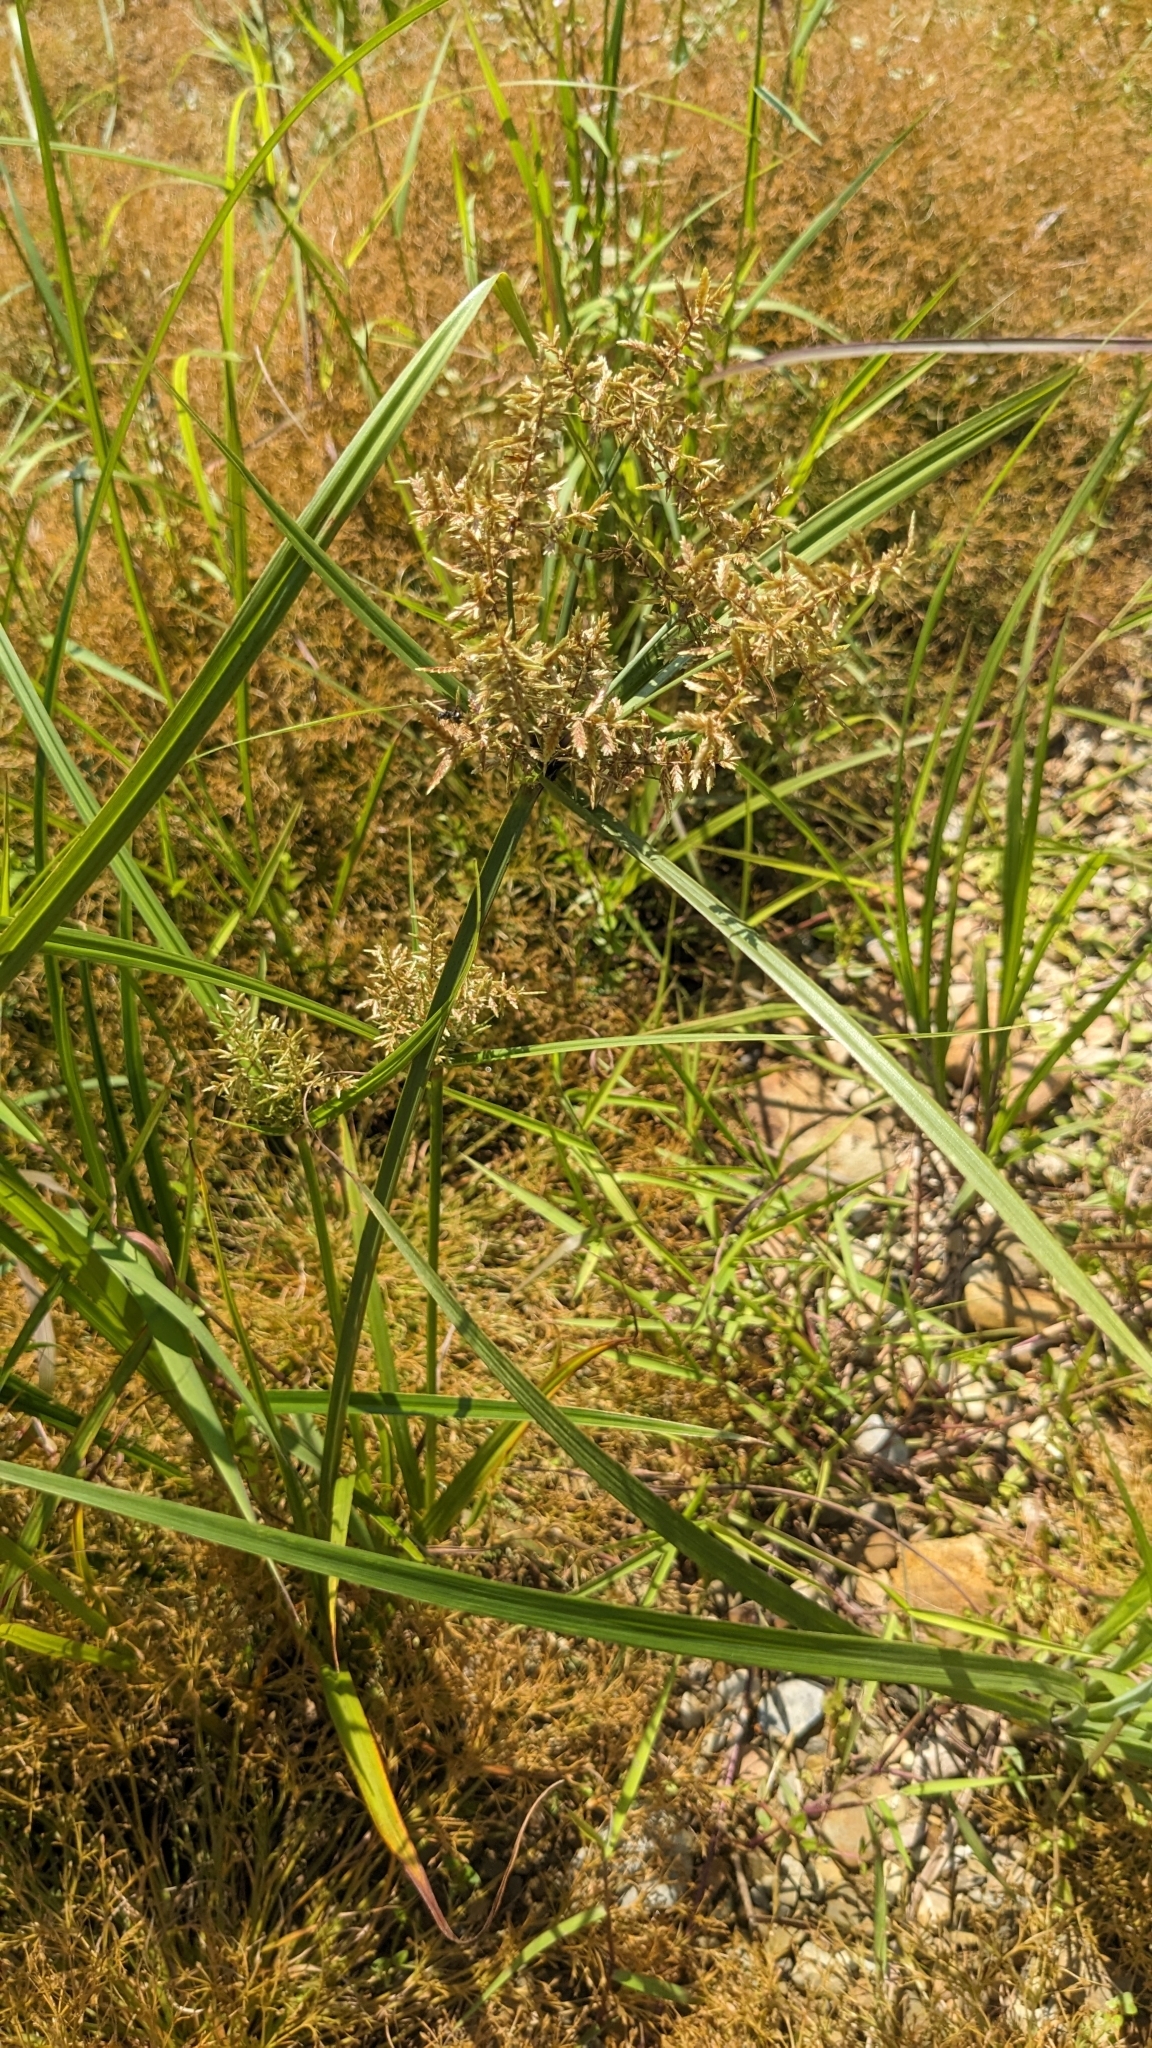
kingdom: Plantae
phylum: Tracheophyta
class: Liliopsida
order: Poales
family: Cyperaceae
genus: Cyperus
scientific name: Cyperus pilosus
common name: Fuzzy flatsedge
